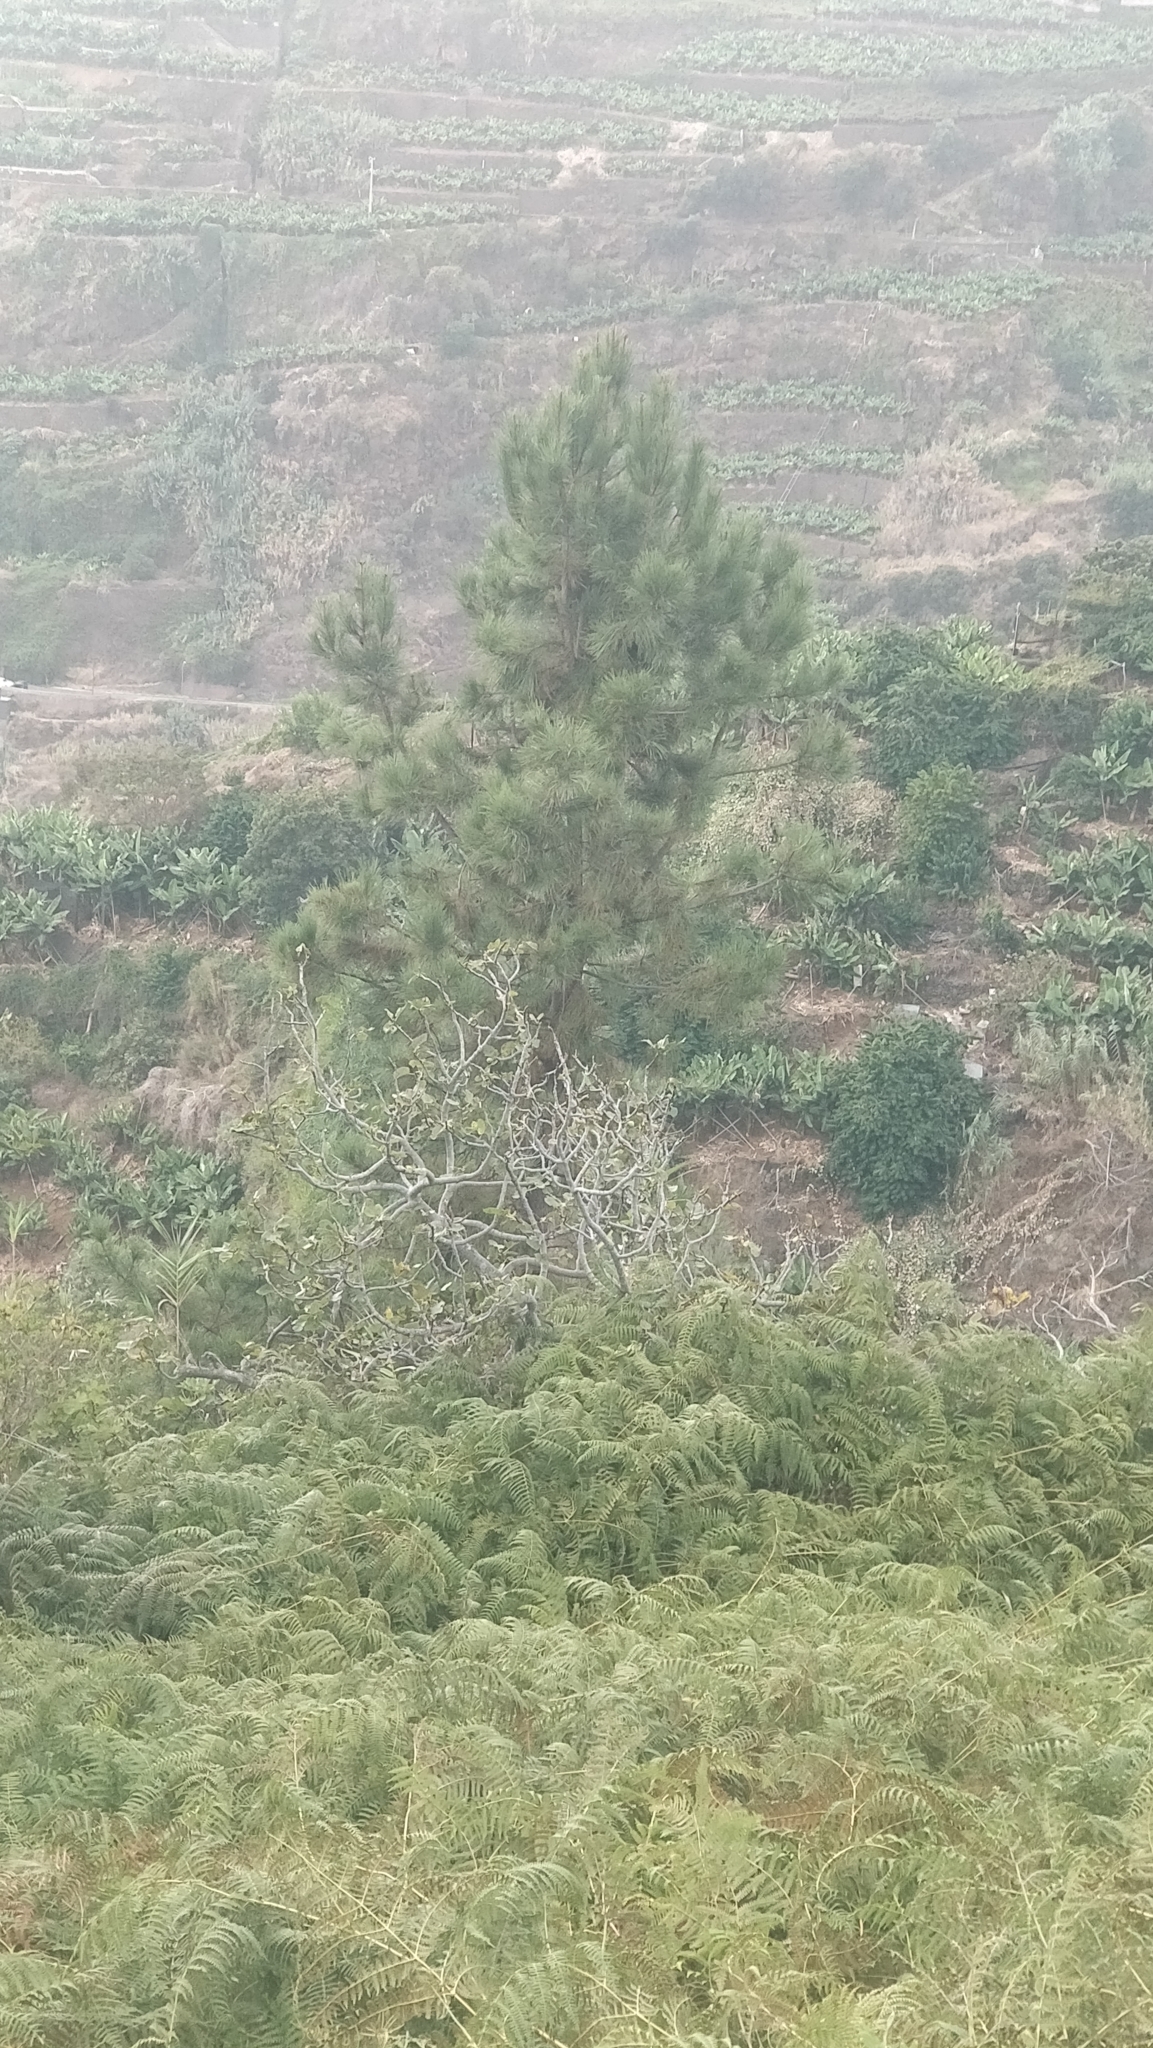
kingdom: Plantae
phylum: Tracheophyta
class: Pinopsida
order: Pinales
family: Pinaceae
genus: Pinus
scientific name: Pinus pinaster
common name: Maritime pine
